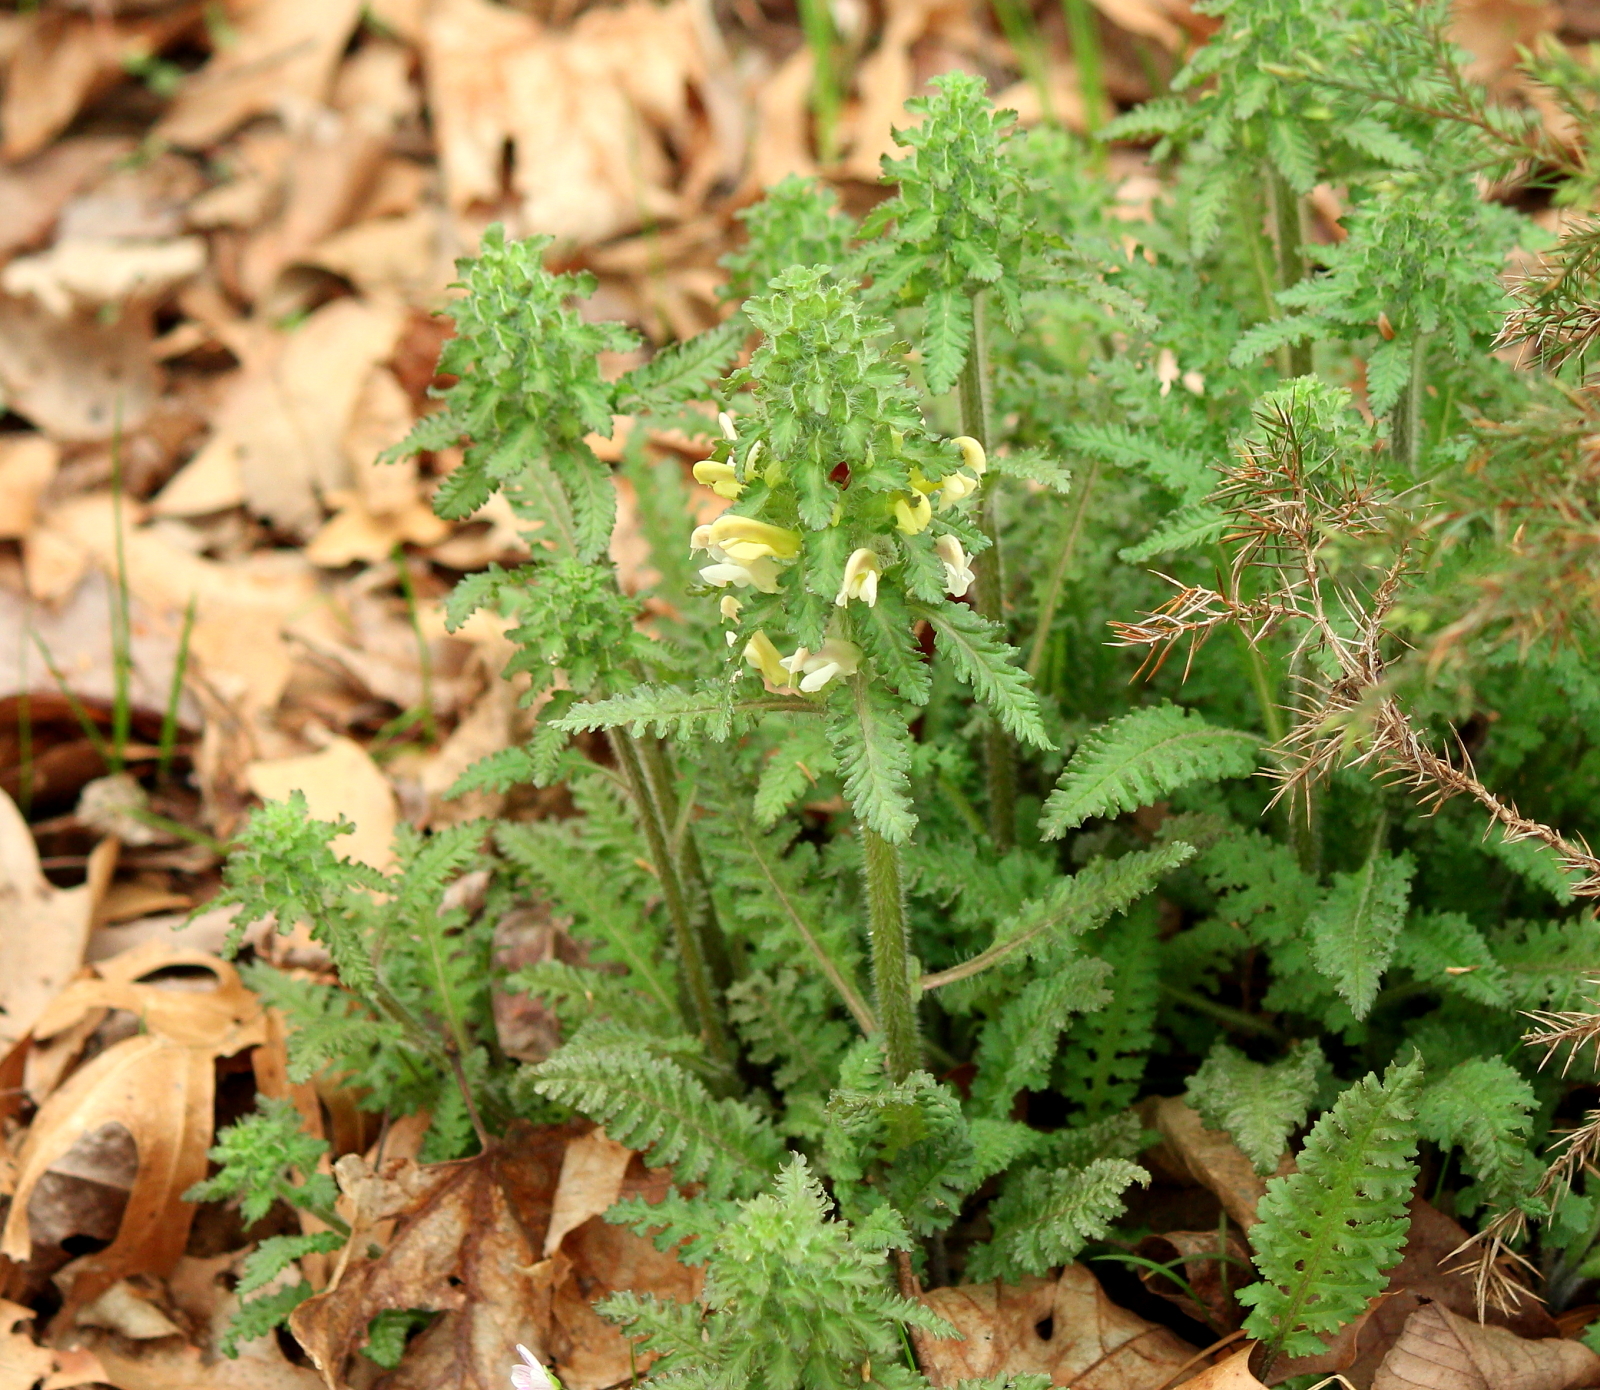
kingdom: Plantae
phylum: Tracheophyta
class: Magnoliopsida
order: Lamiales
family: Orobanchaceae
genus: Pedicularis
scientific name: Pedicularis canadensis
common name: Early lousewort
